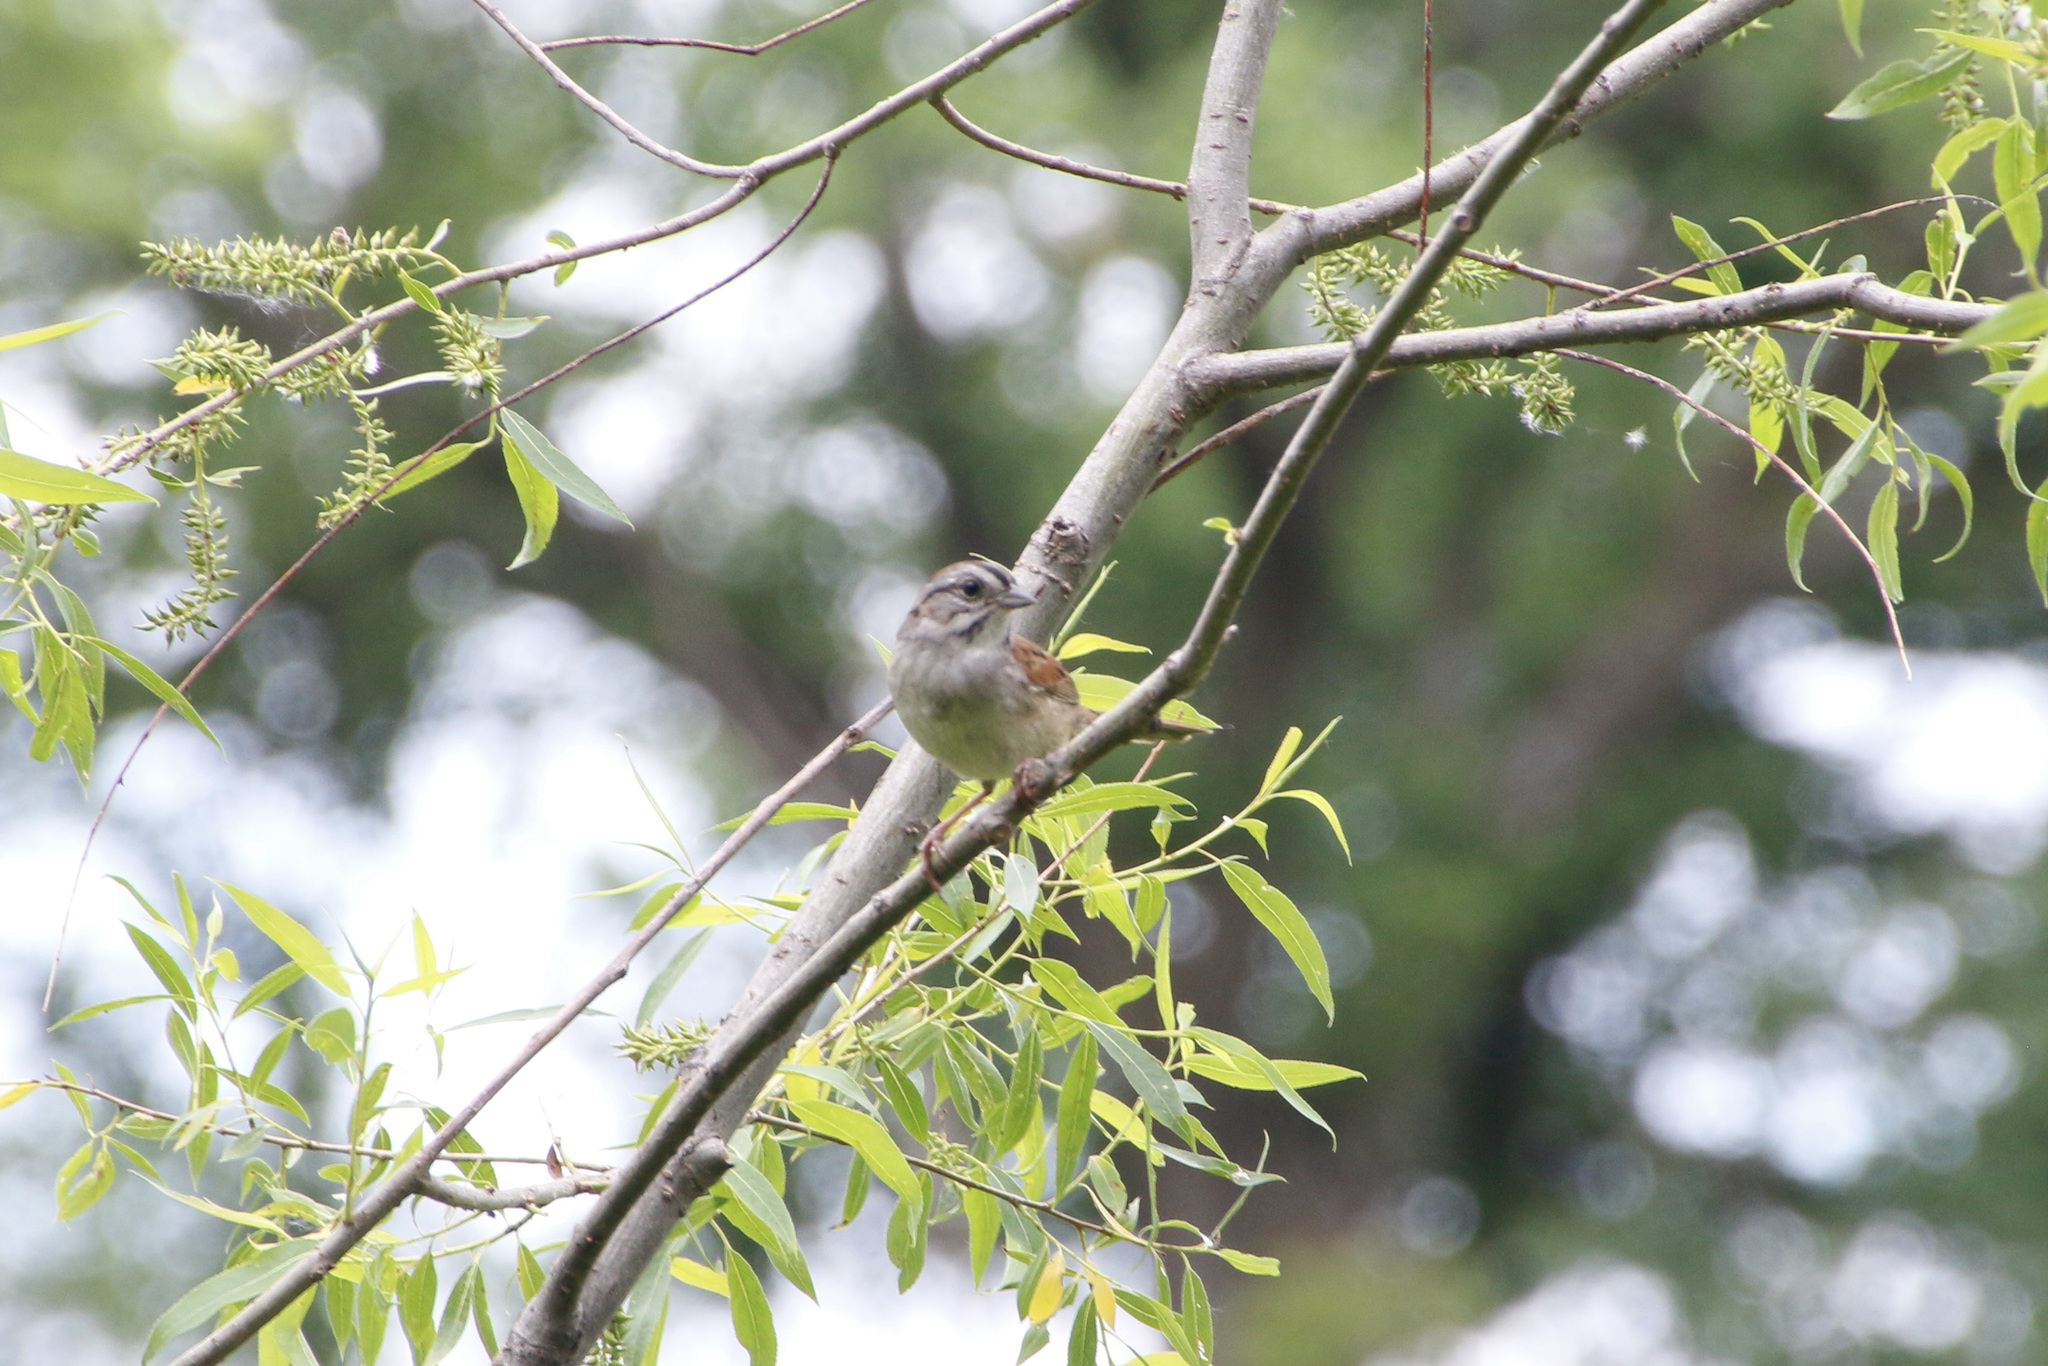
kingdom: Animalia
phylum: Chordata
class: Aves
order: Passeriformes
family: Passerellidae
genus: Melospiza
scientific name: Melospiza georgiana
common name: Swamp sparrow
